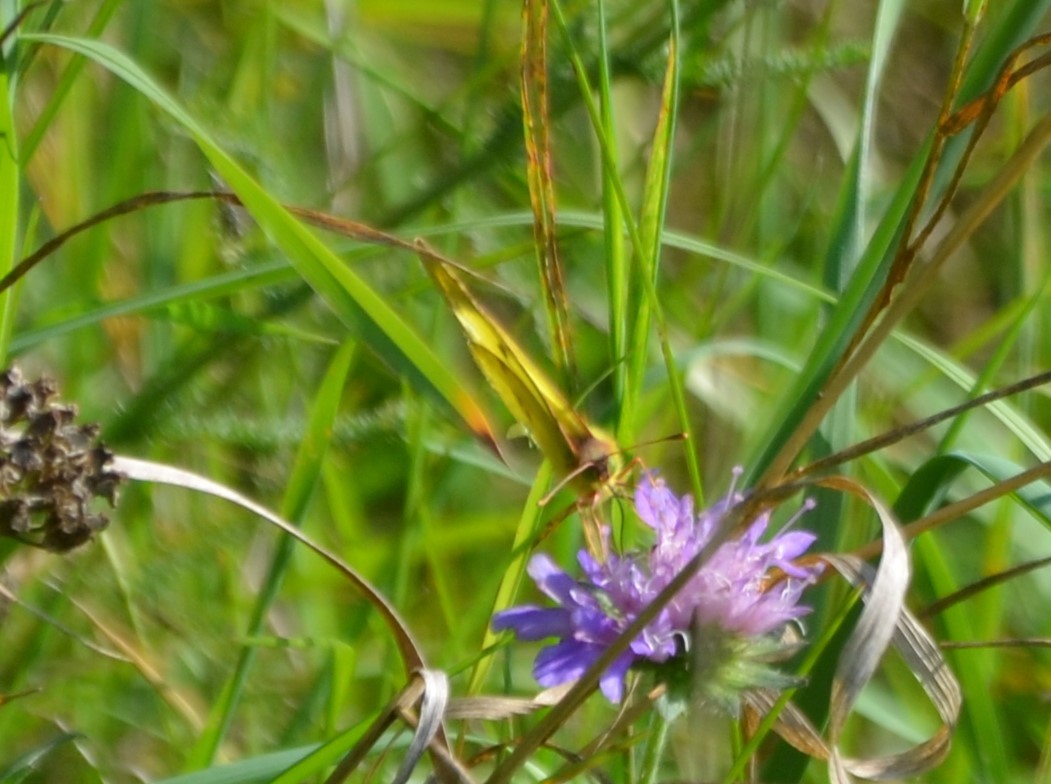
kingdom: Animalia
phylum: Arthropoda
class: Insecta
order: Lepidoptera
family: Pieridae
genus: Colias
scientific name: Colias alfacariensis
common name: Berger's clouded yellow
